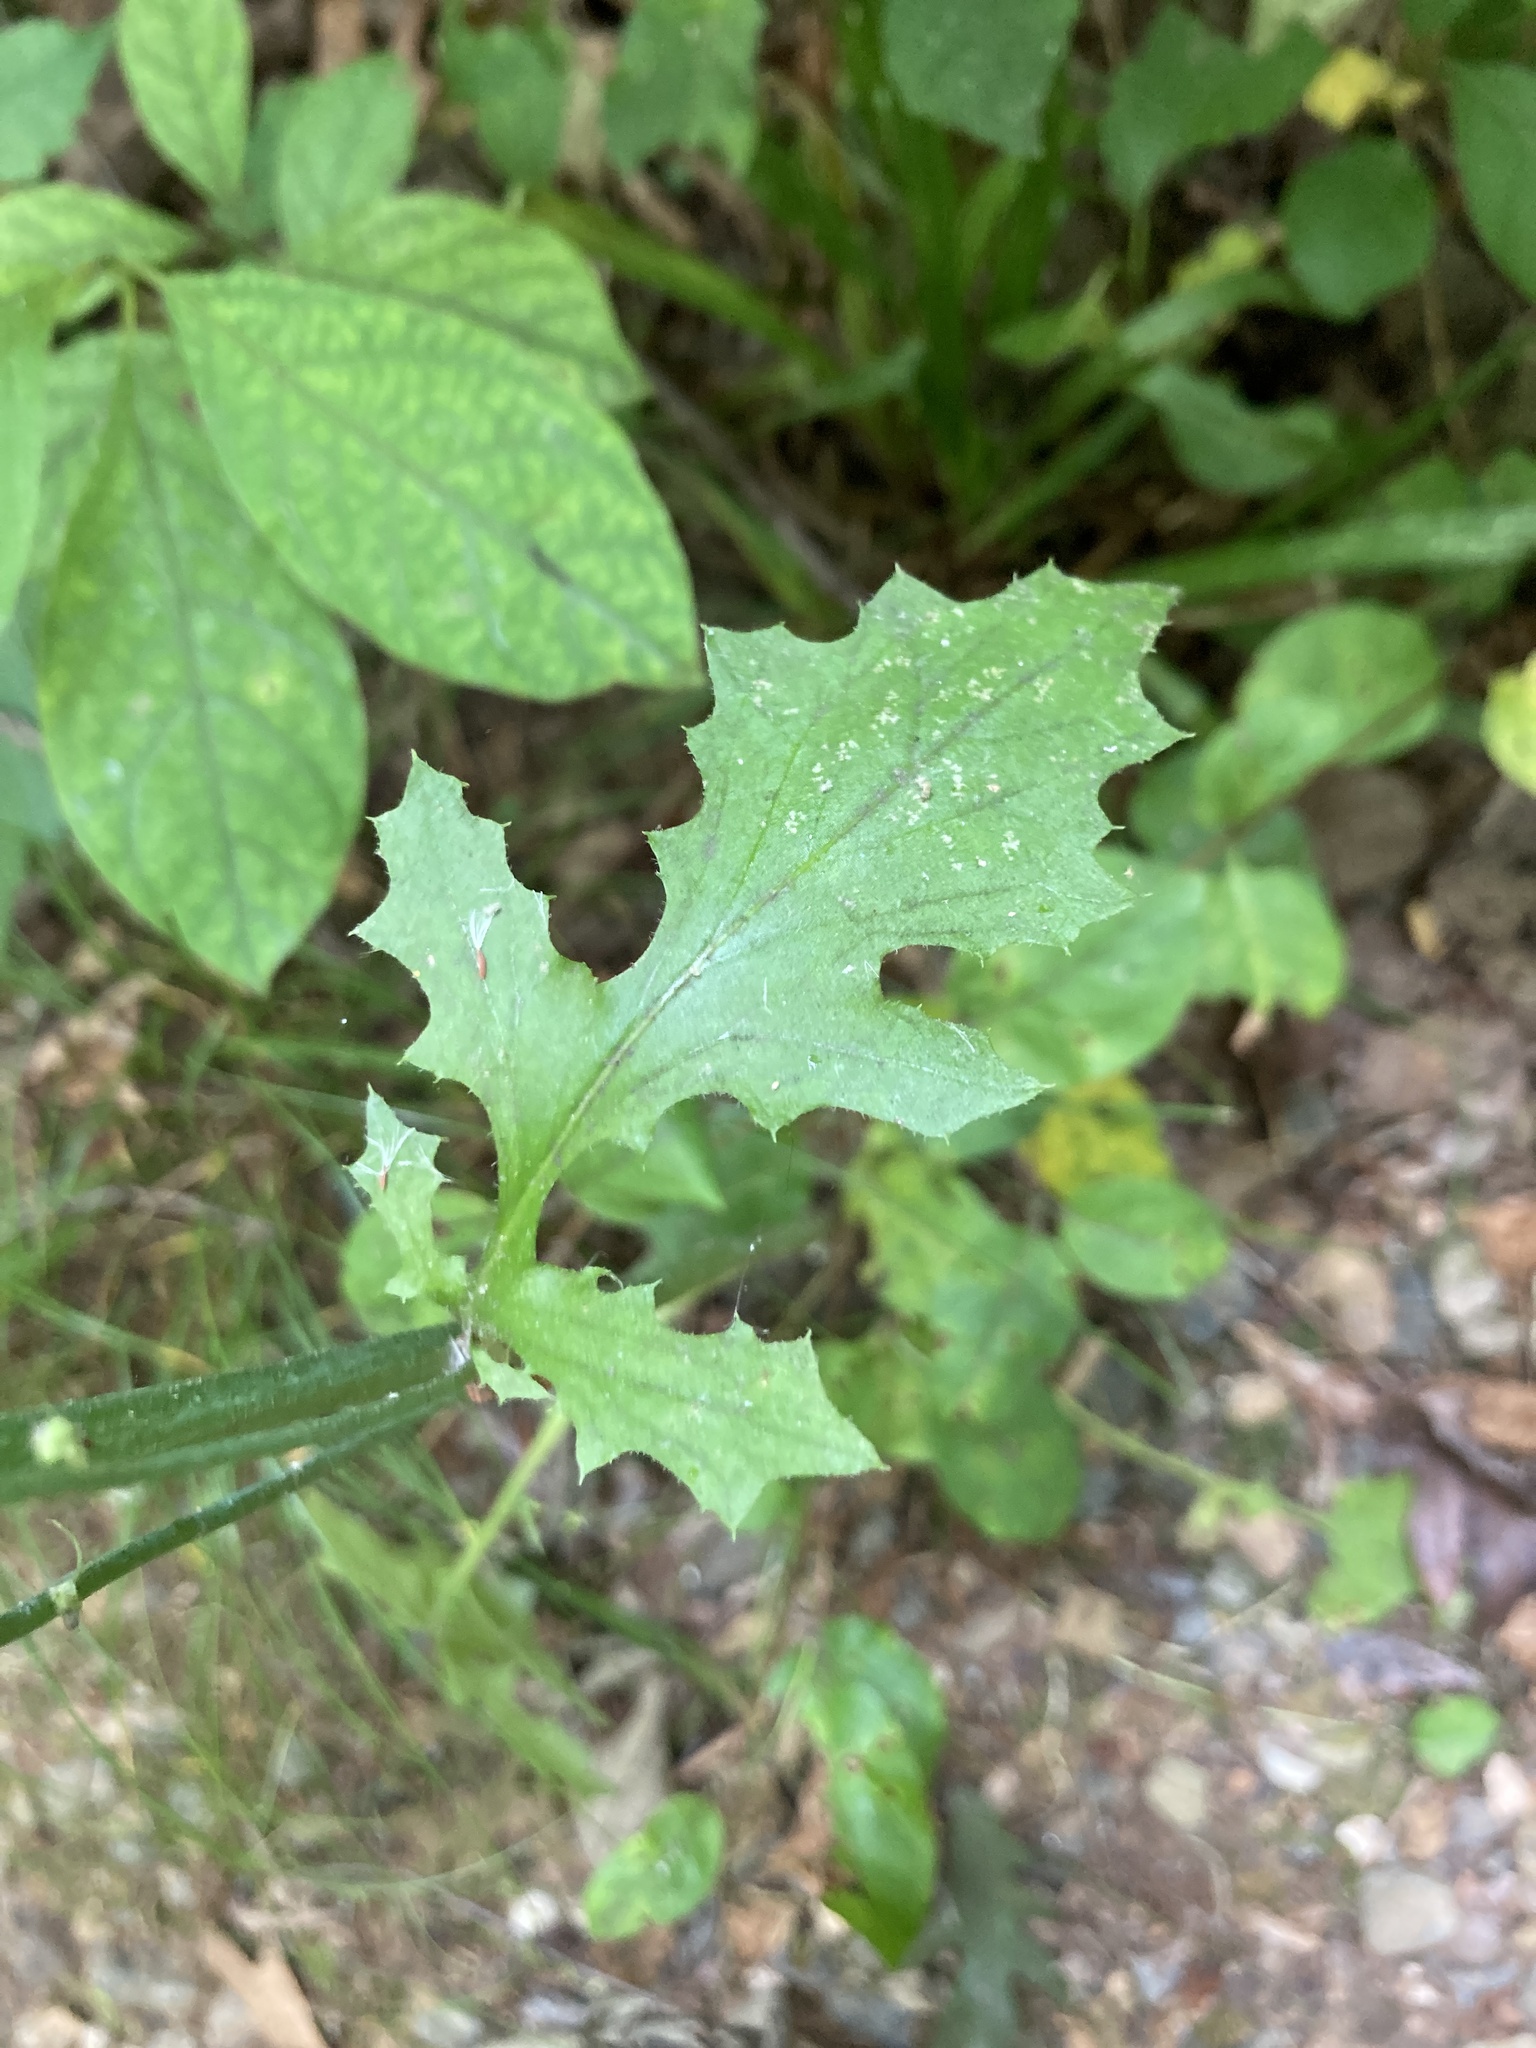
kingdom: Plantae
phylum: Tracheophyta
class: Magnoliopsida
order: Asterales
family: Asteraceae
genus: Youngia
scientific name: Youngia japonica
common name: Oriental false hawksbeard
